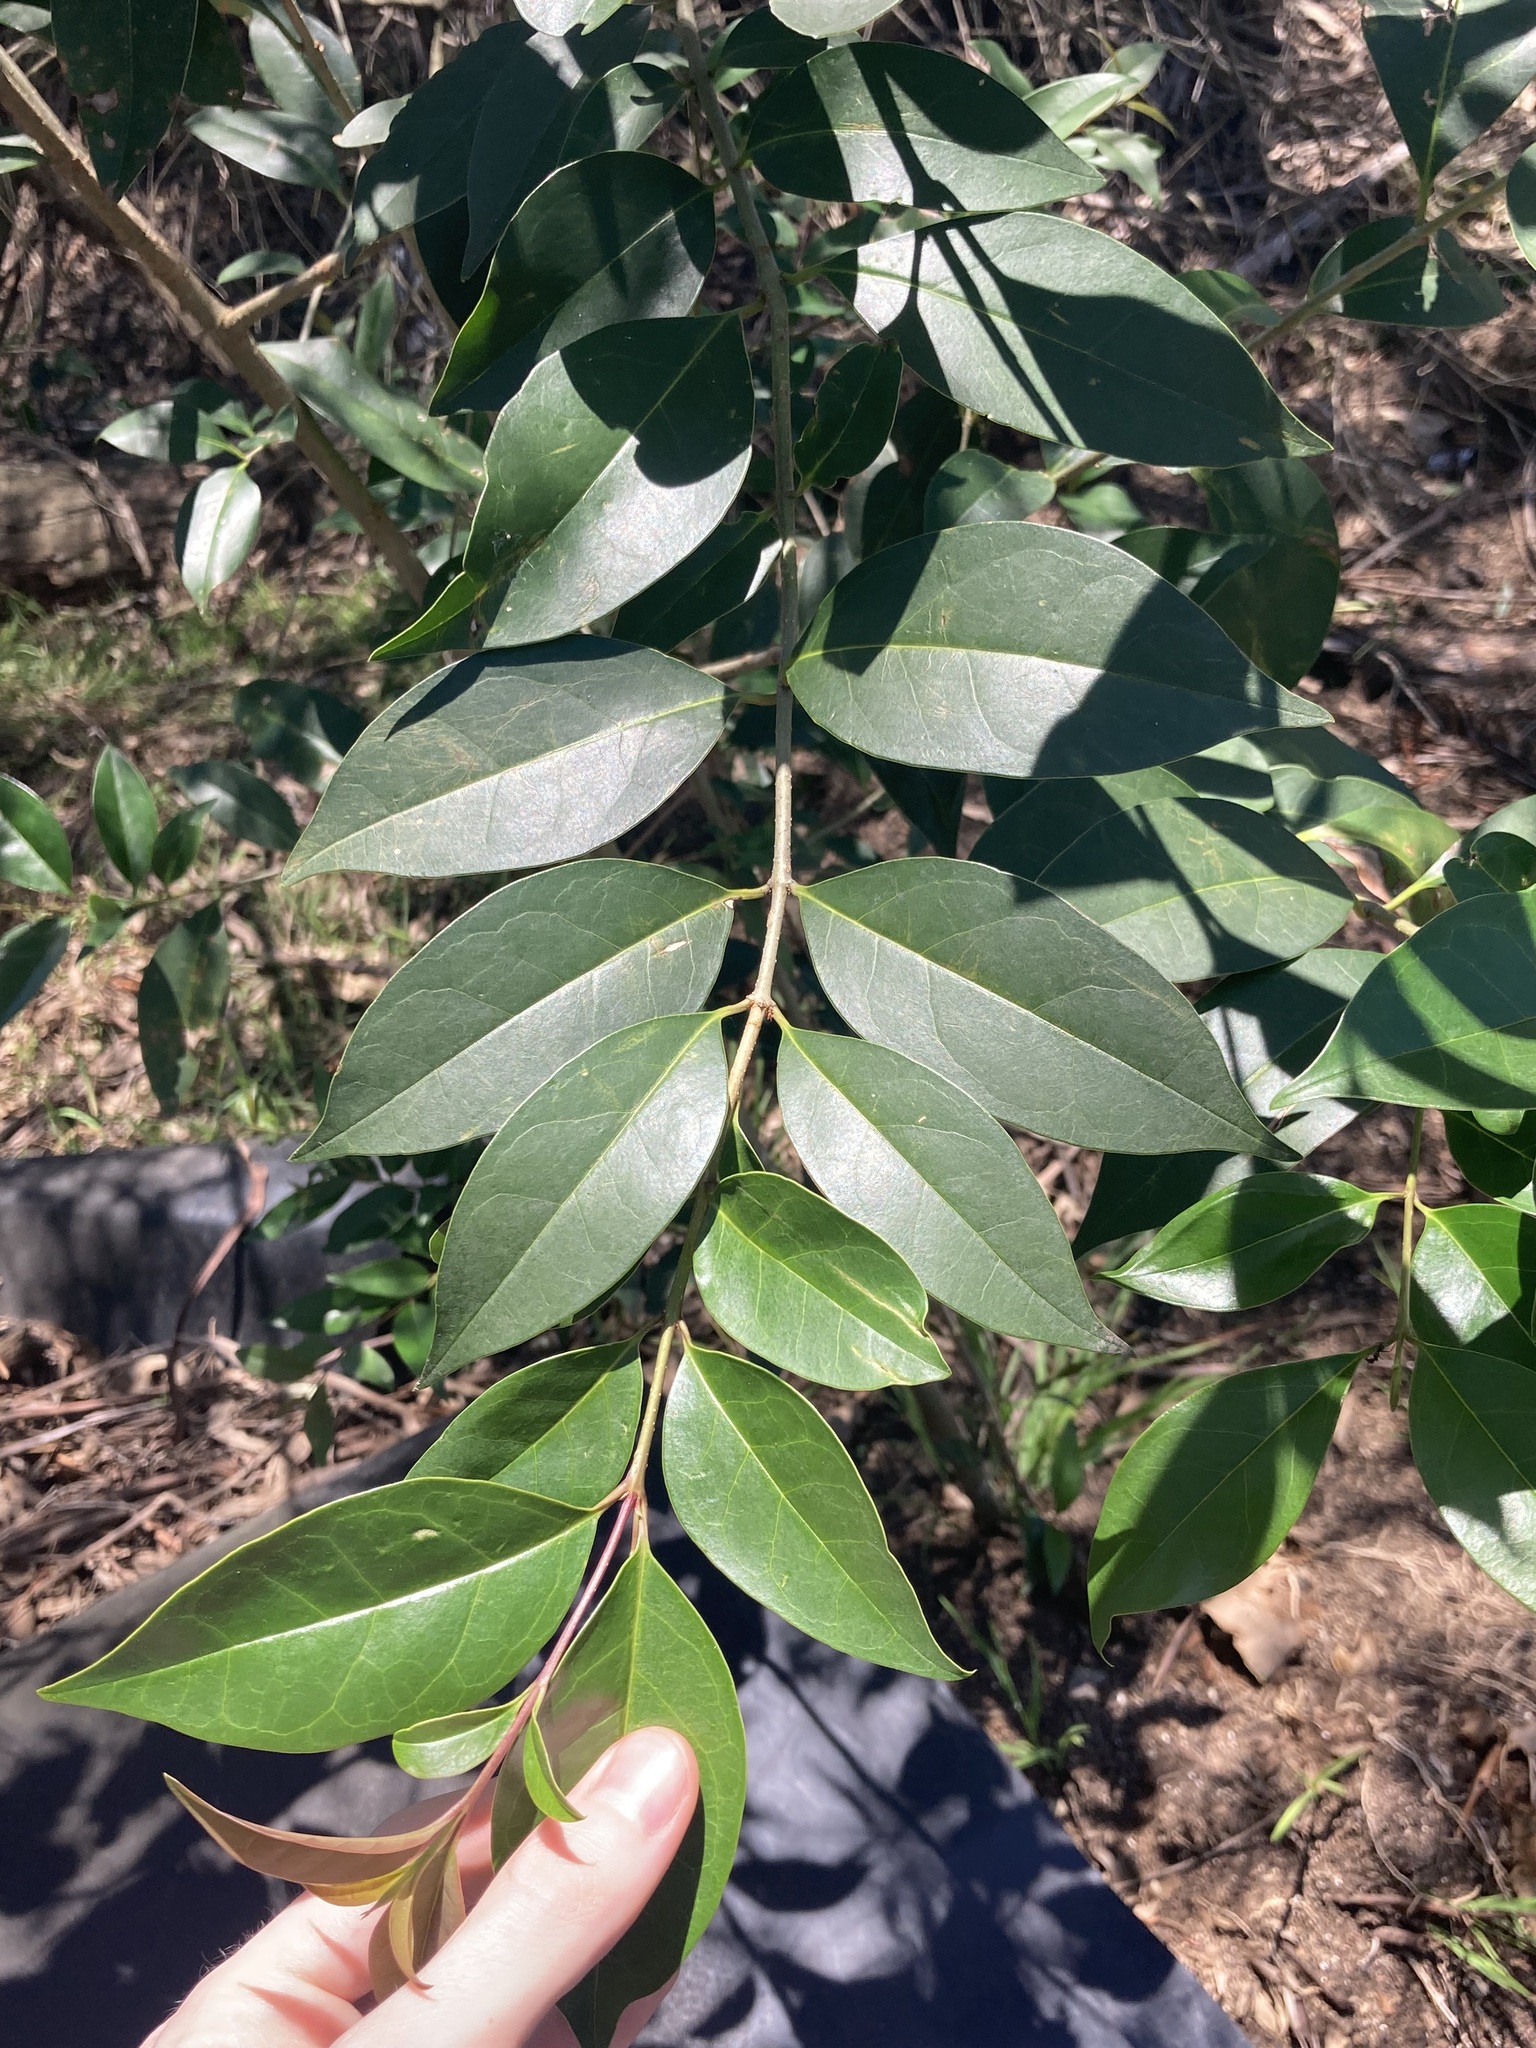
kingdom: Plantae
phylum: Tracheophyta
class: Magnoliopsida
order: Lamiales
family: Oleaceae
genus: Ligustrum
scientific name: Ligustrum lucidum
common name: Glossy privet
